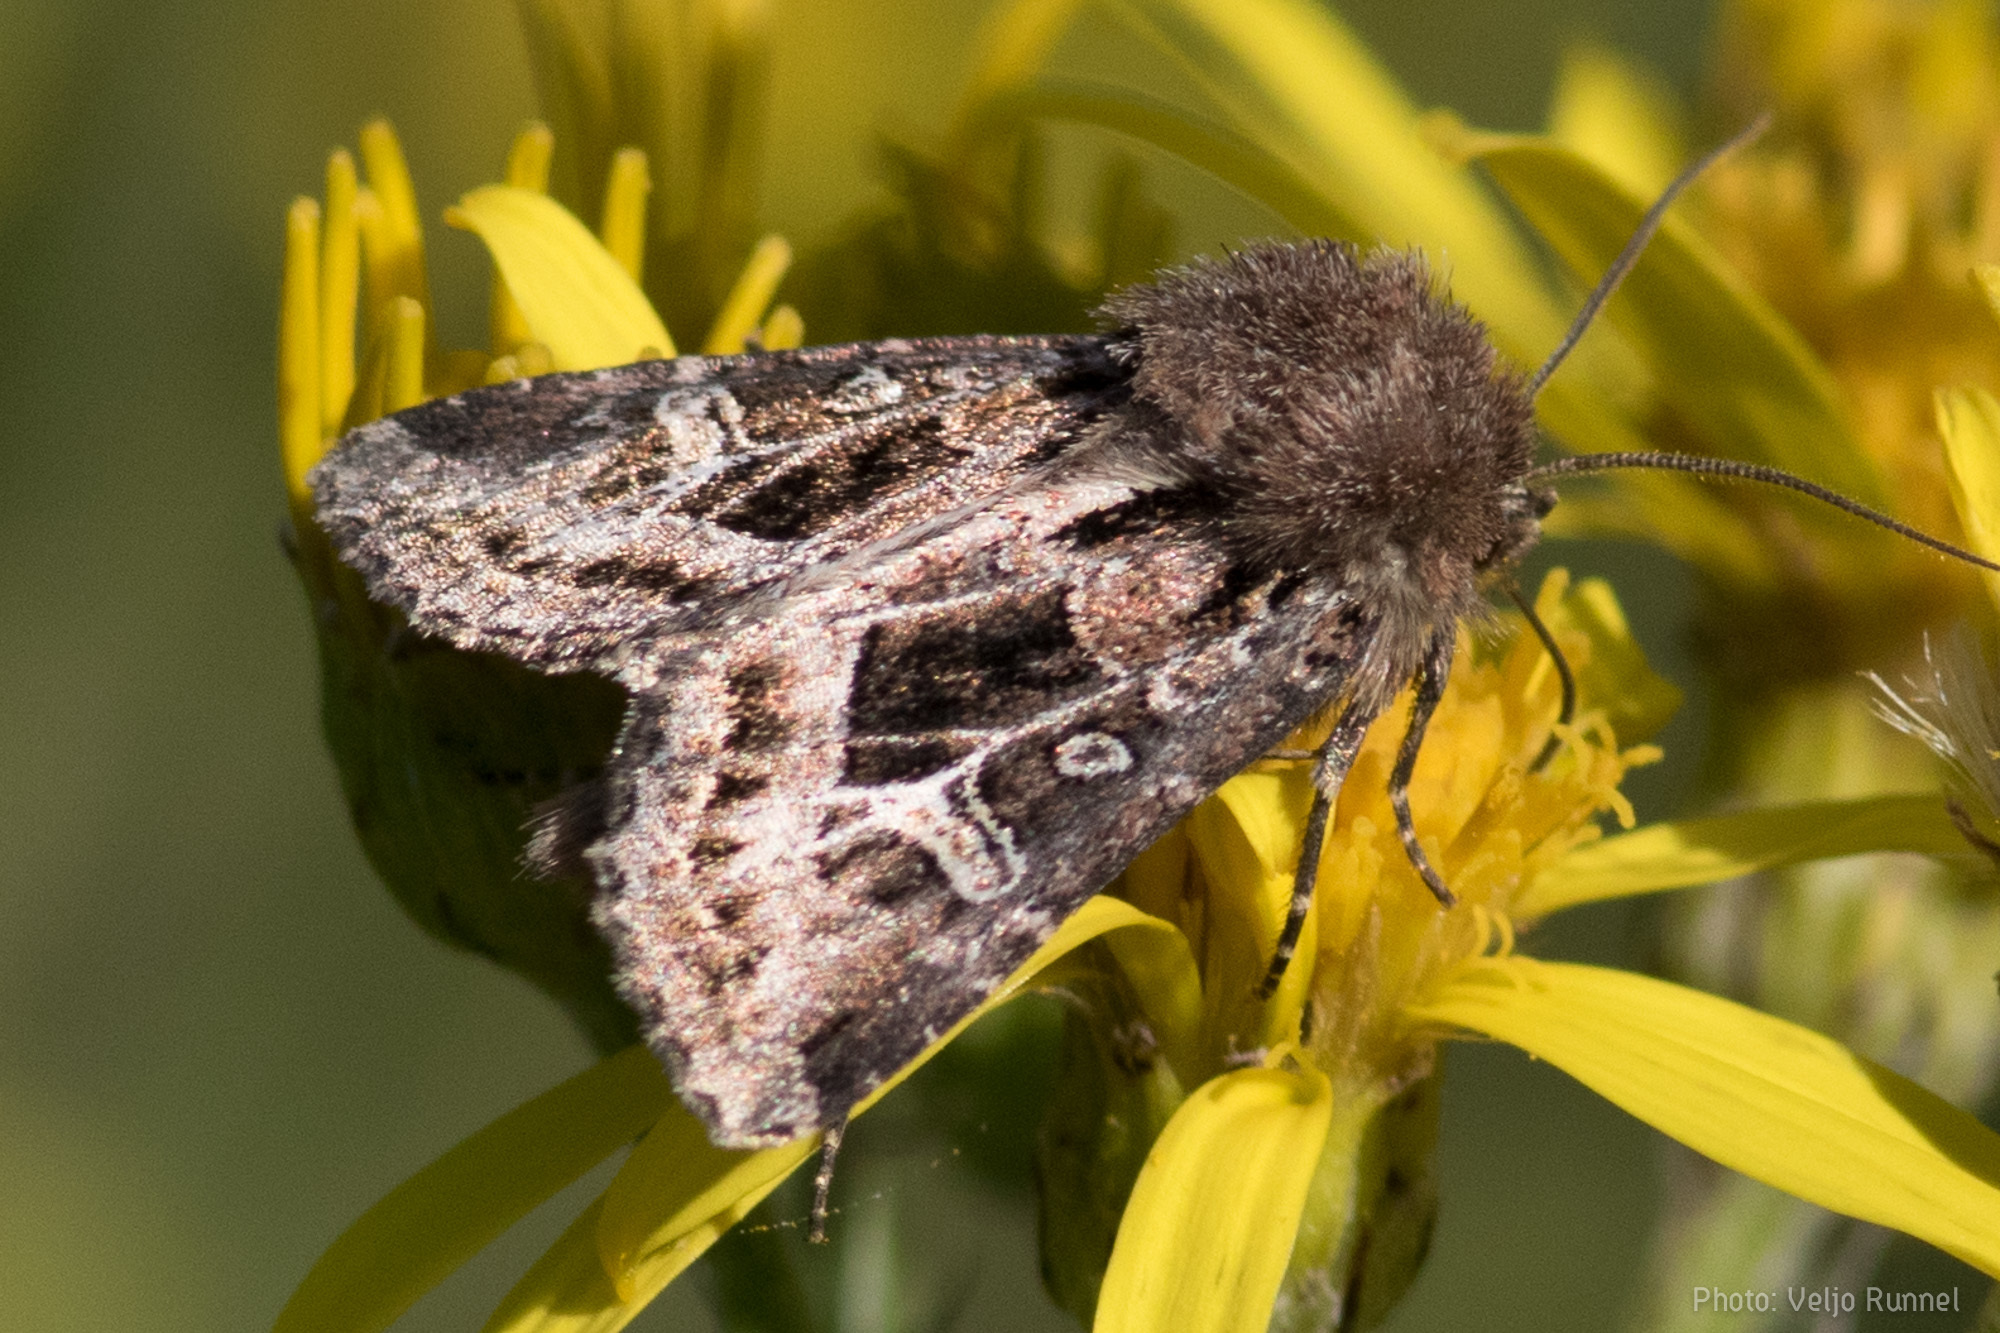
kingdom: Animalia
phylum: Arthropoda
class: Insecta
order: Lepidoptera
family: Noctuidae
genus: Celaena
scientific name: Celaena haworthii
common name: Haworth's minor
